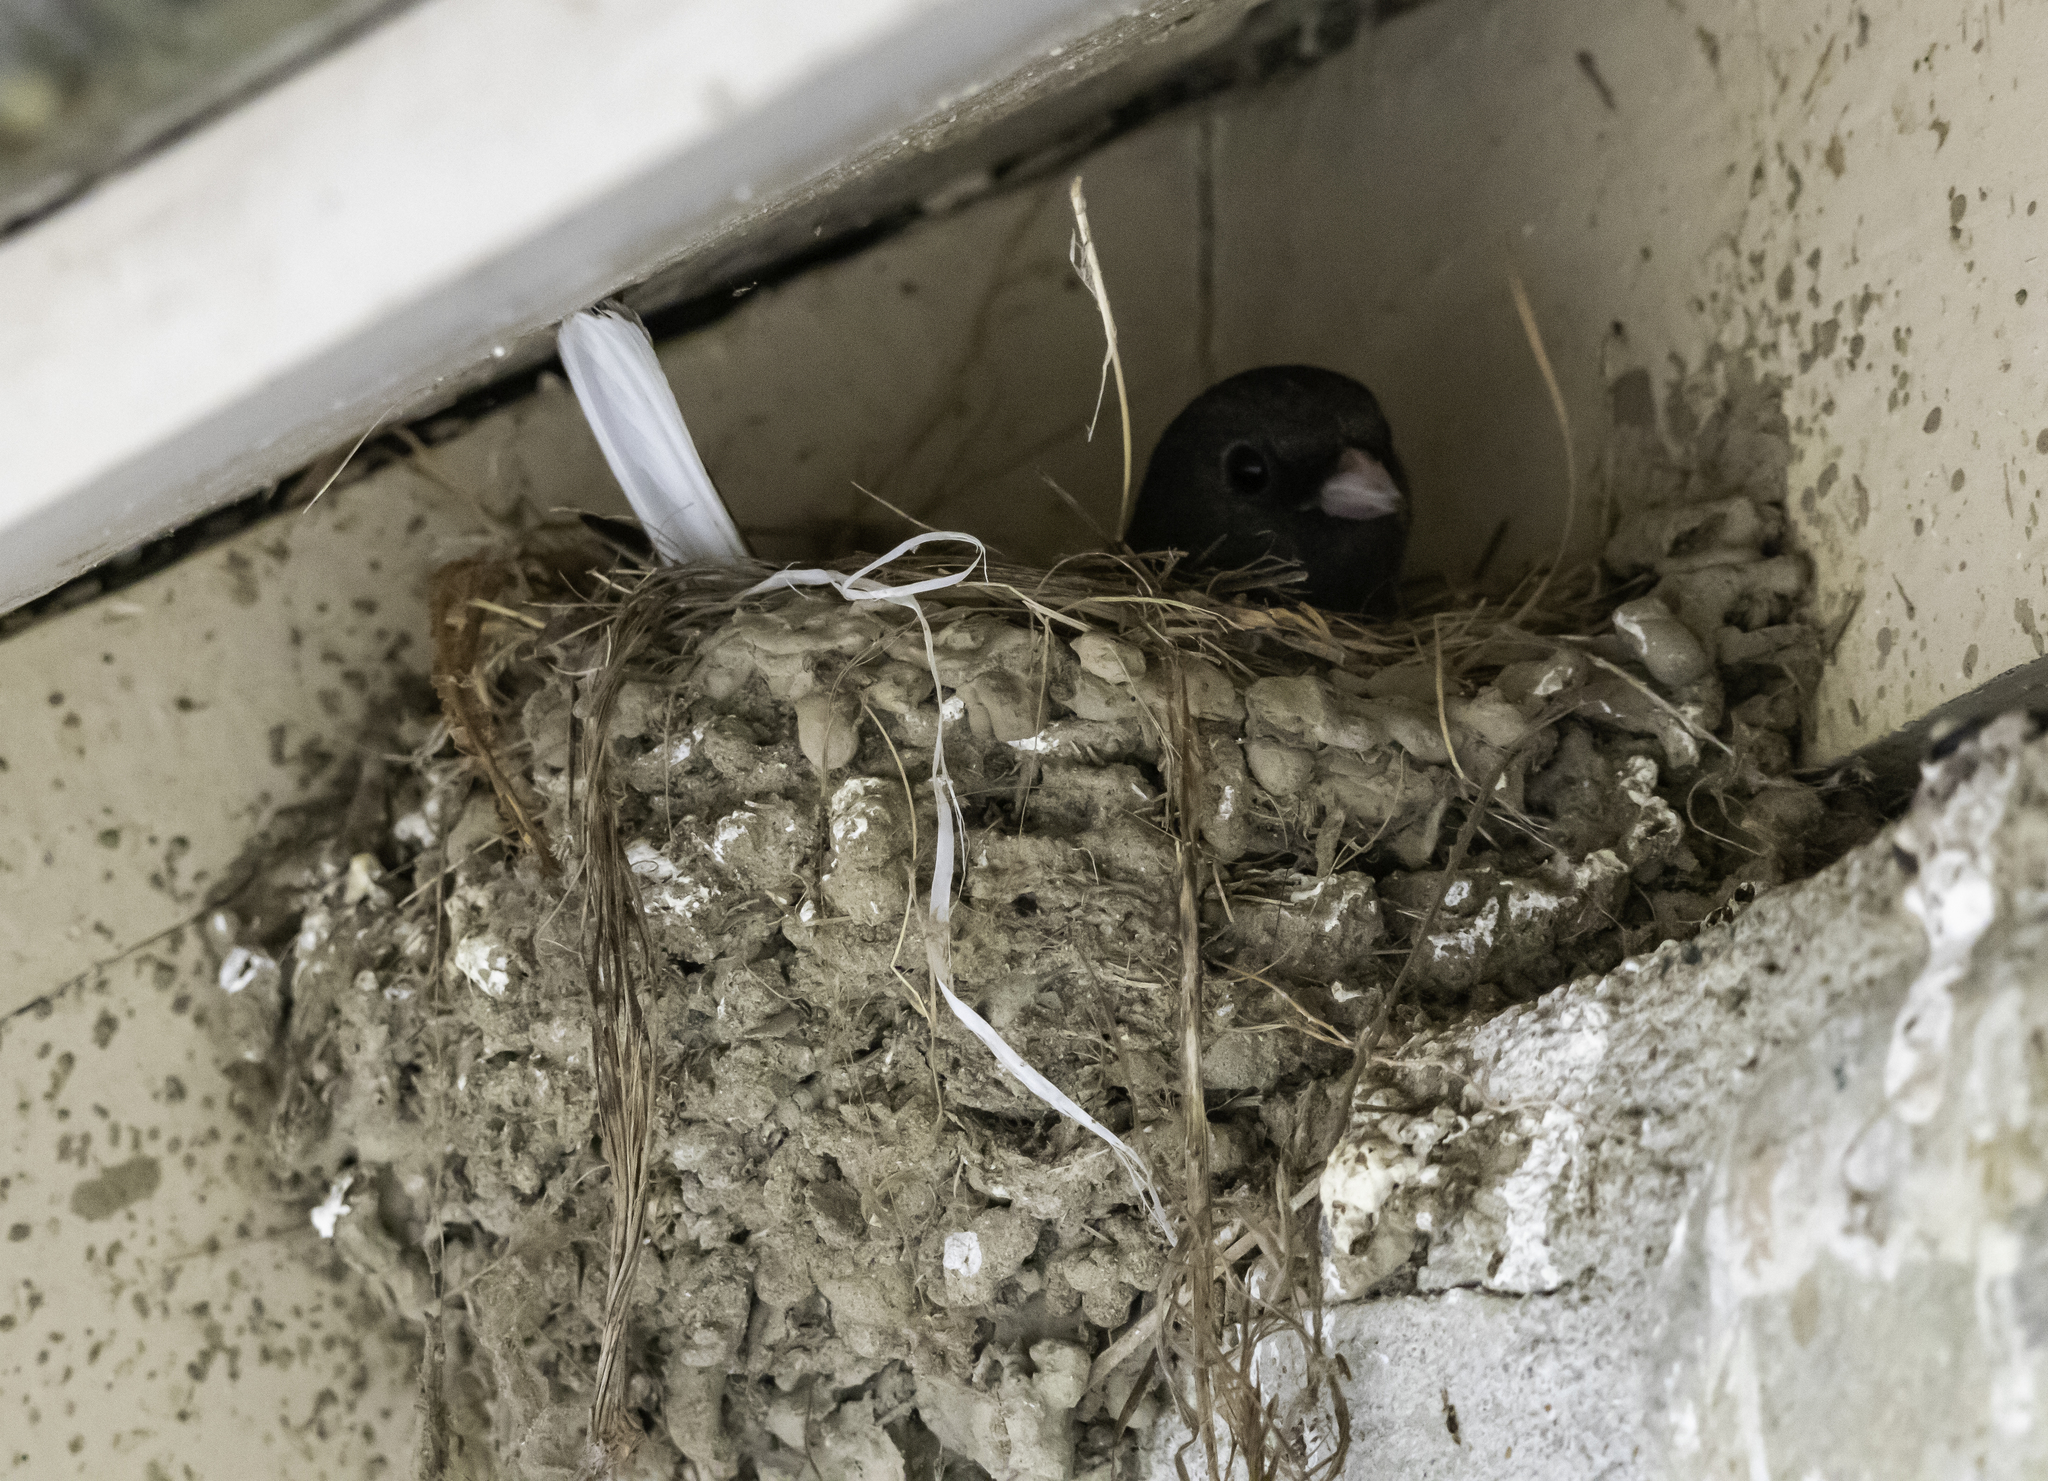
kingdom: Animalia
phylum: Chordata
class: Aves
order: Passeriformes
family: Passerellidae
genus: Junco
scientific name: Junco hyemalis
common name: Dark-eyed junco
